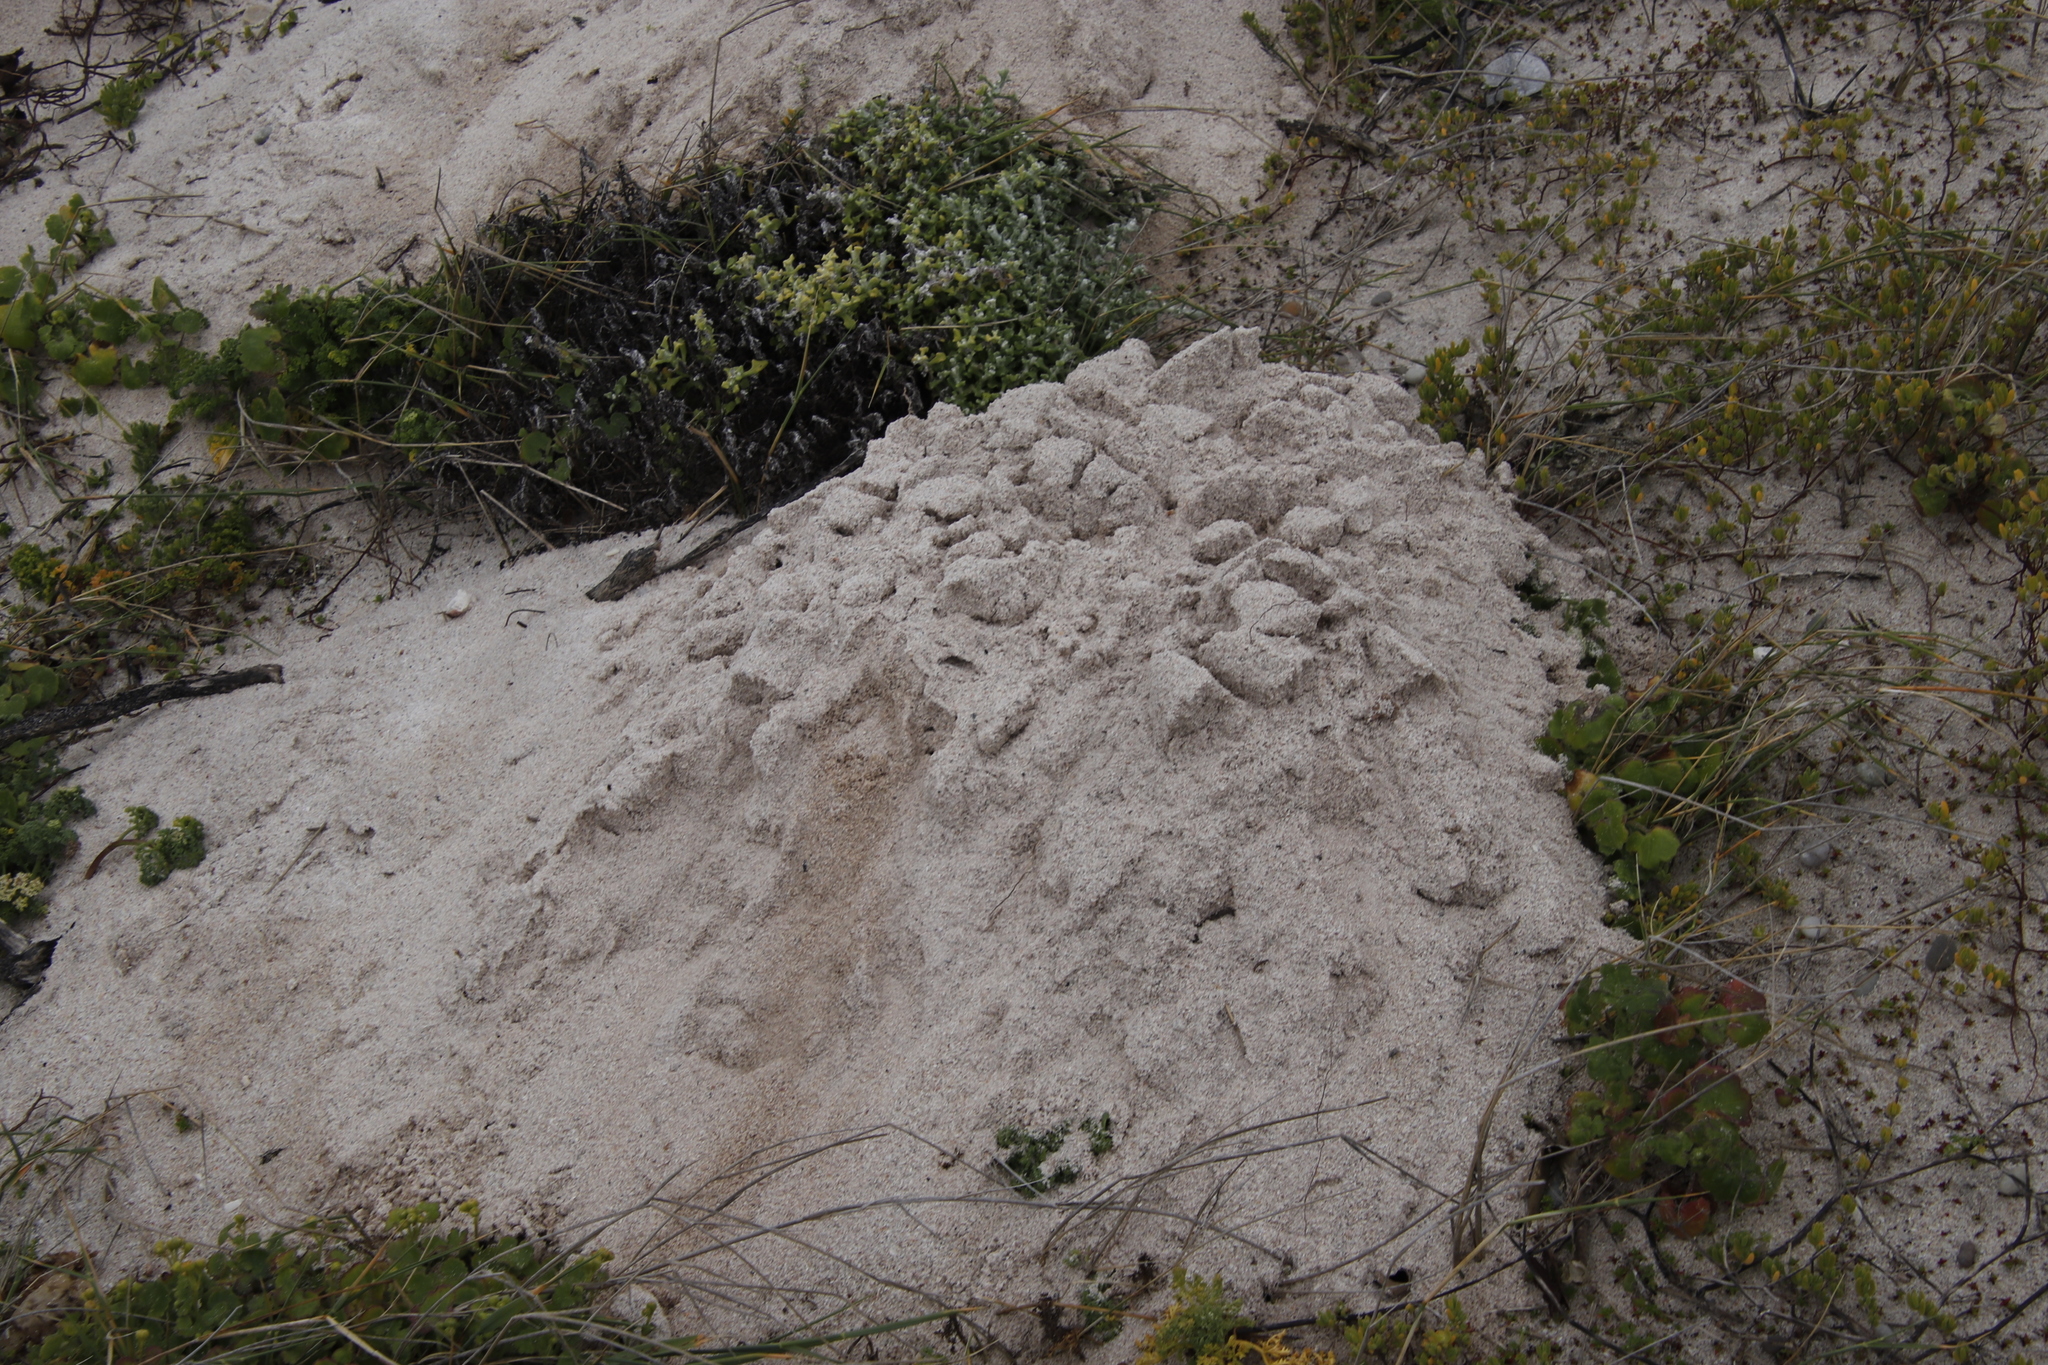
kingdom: Animalia
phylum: Chordata
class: Mammalia
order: Rodentia
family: Bathyergidae
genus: Bathyergus
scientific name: Bathyergus suillus
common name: Cape dune mole rat
